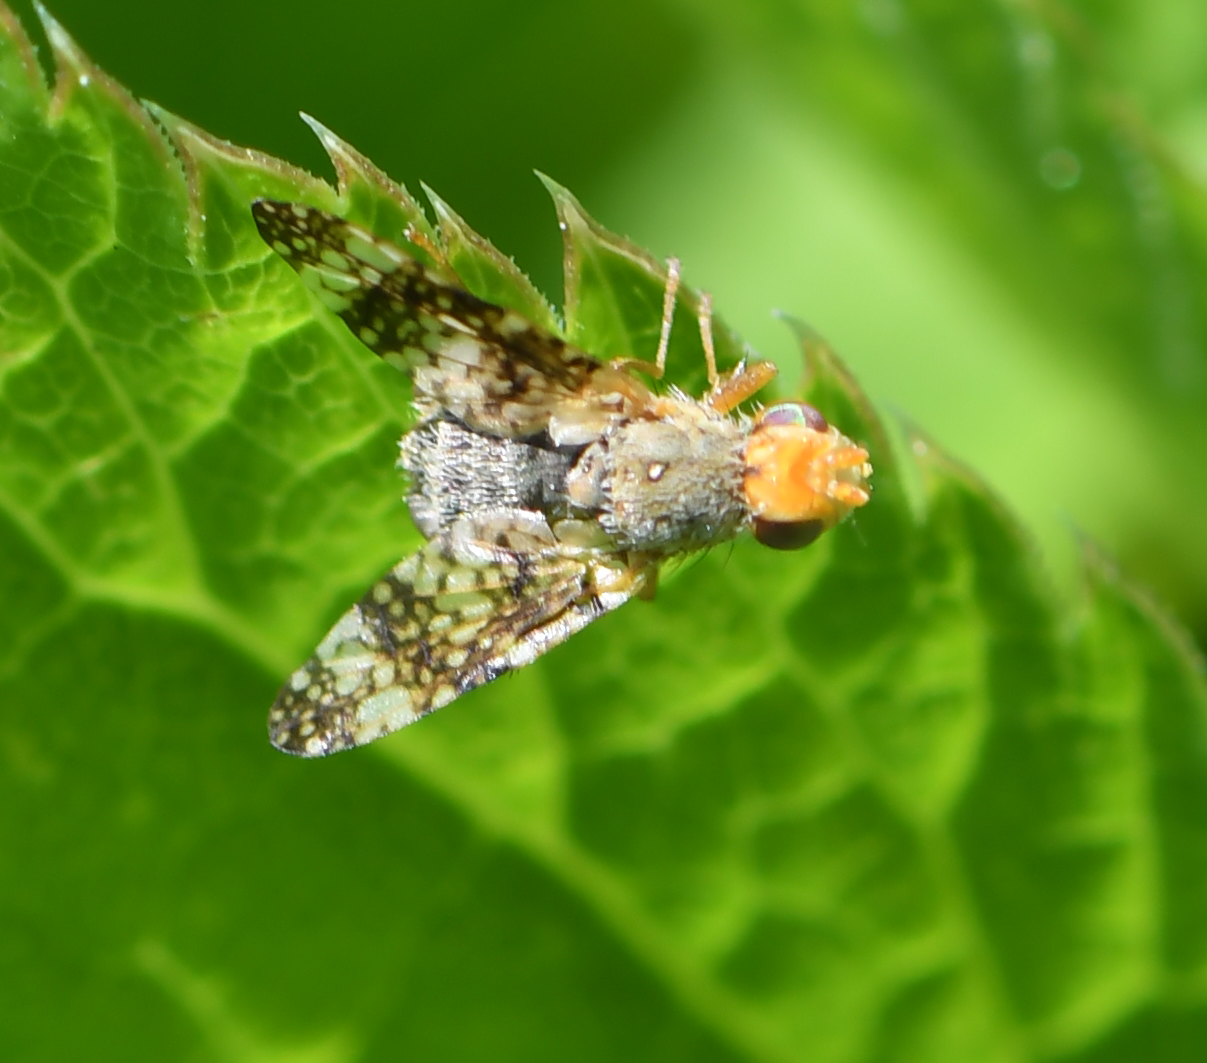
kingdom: Animalia
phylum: Arthropoda
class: Insecta
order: Diptera
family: Tephritidae
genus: Oxyna
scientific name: Oxyna parietina
